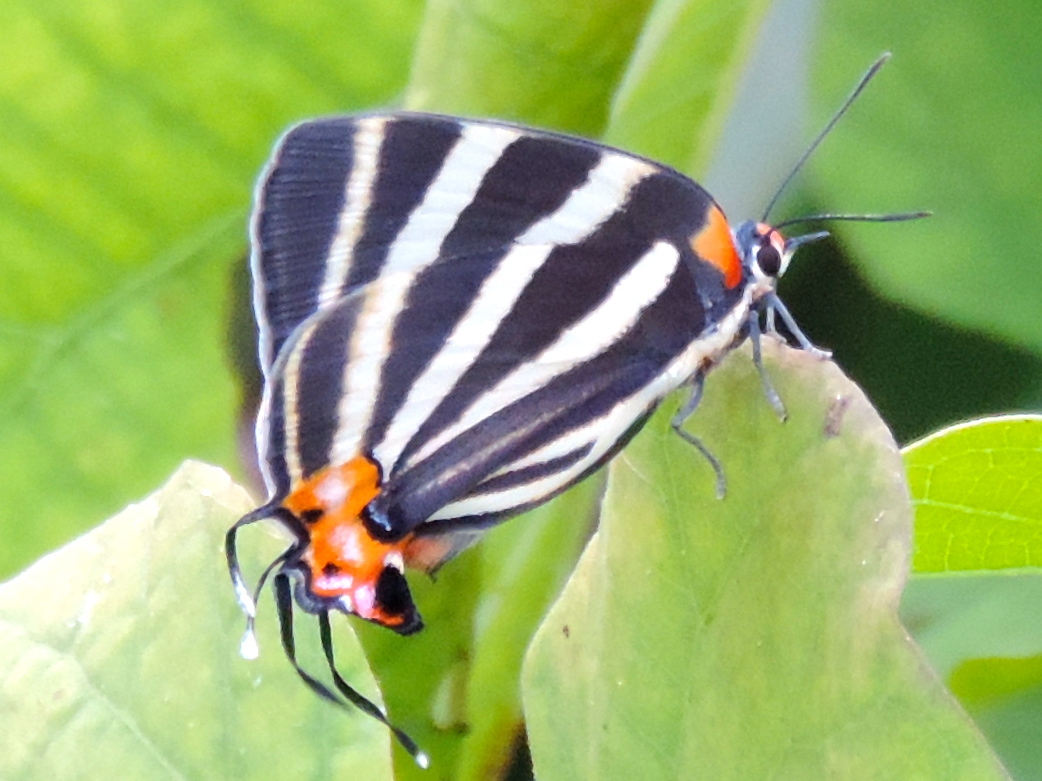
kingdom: Animalia
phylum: Arthropoda
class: Insecta
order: Lepidoptera
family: Lycaenidae
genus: Thecla
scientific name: Thecla bathildis
